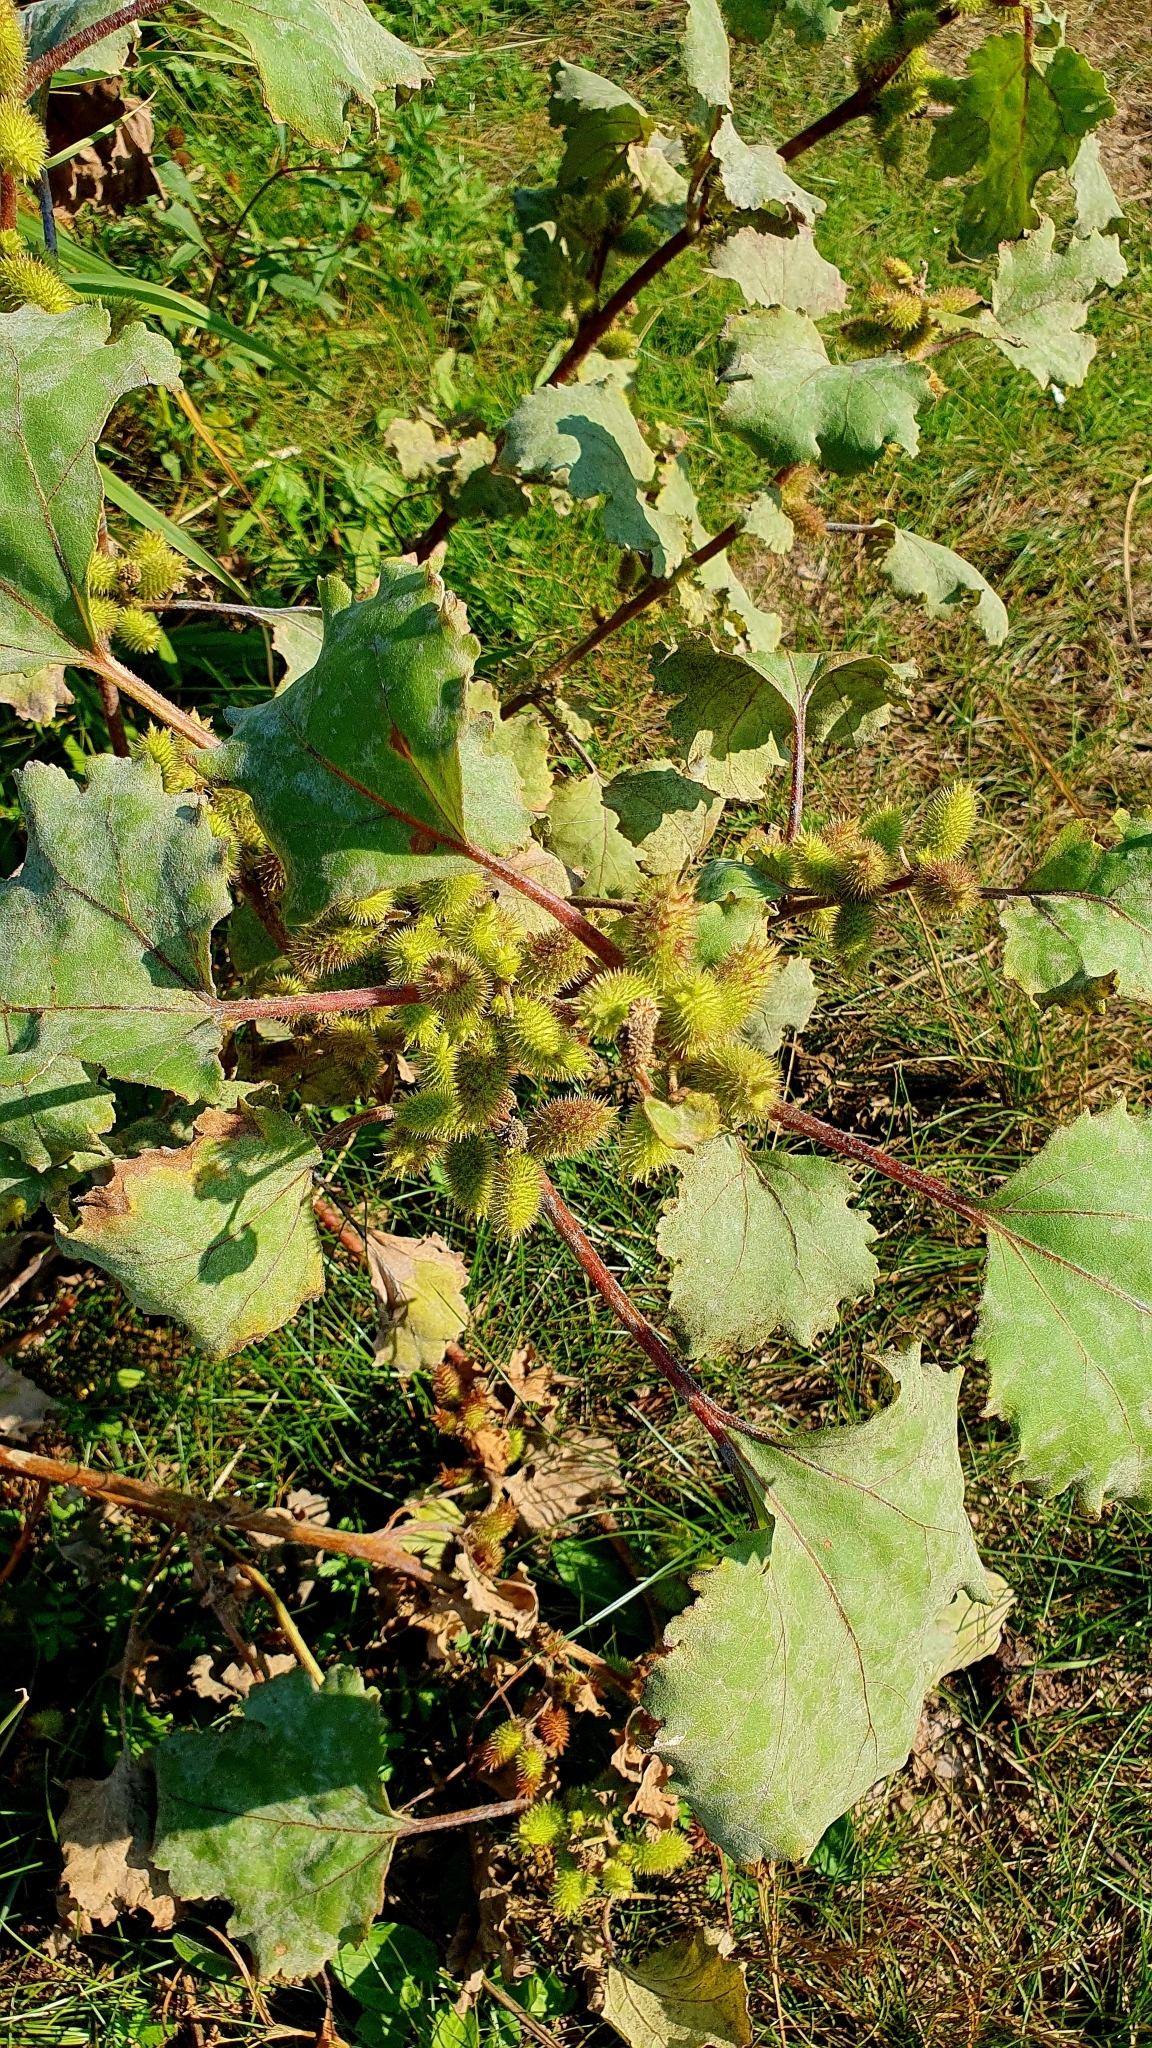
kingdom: Plantae
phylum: Tracheophyta
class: Magnoliopsida
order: Asterales
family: Asteraceae
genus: Xanthium
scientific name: Xanthium orientale
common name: Californian burr
